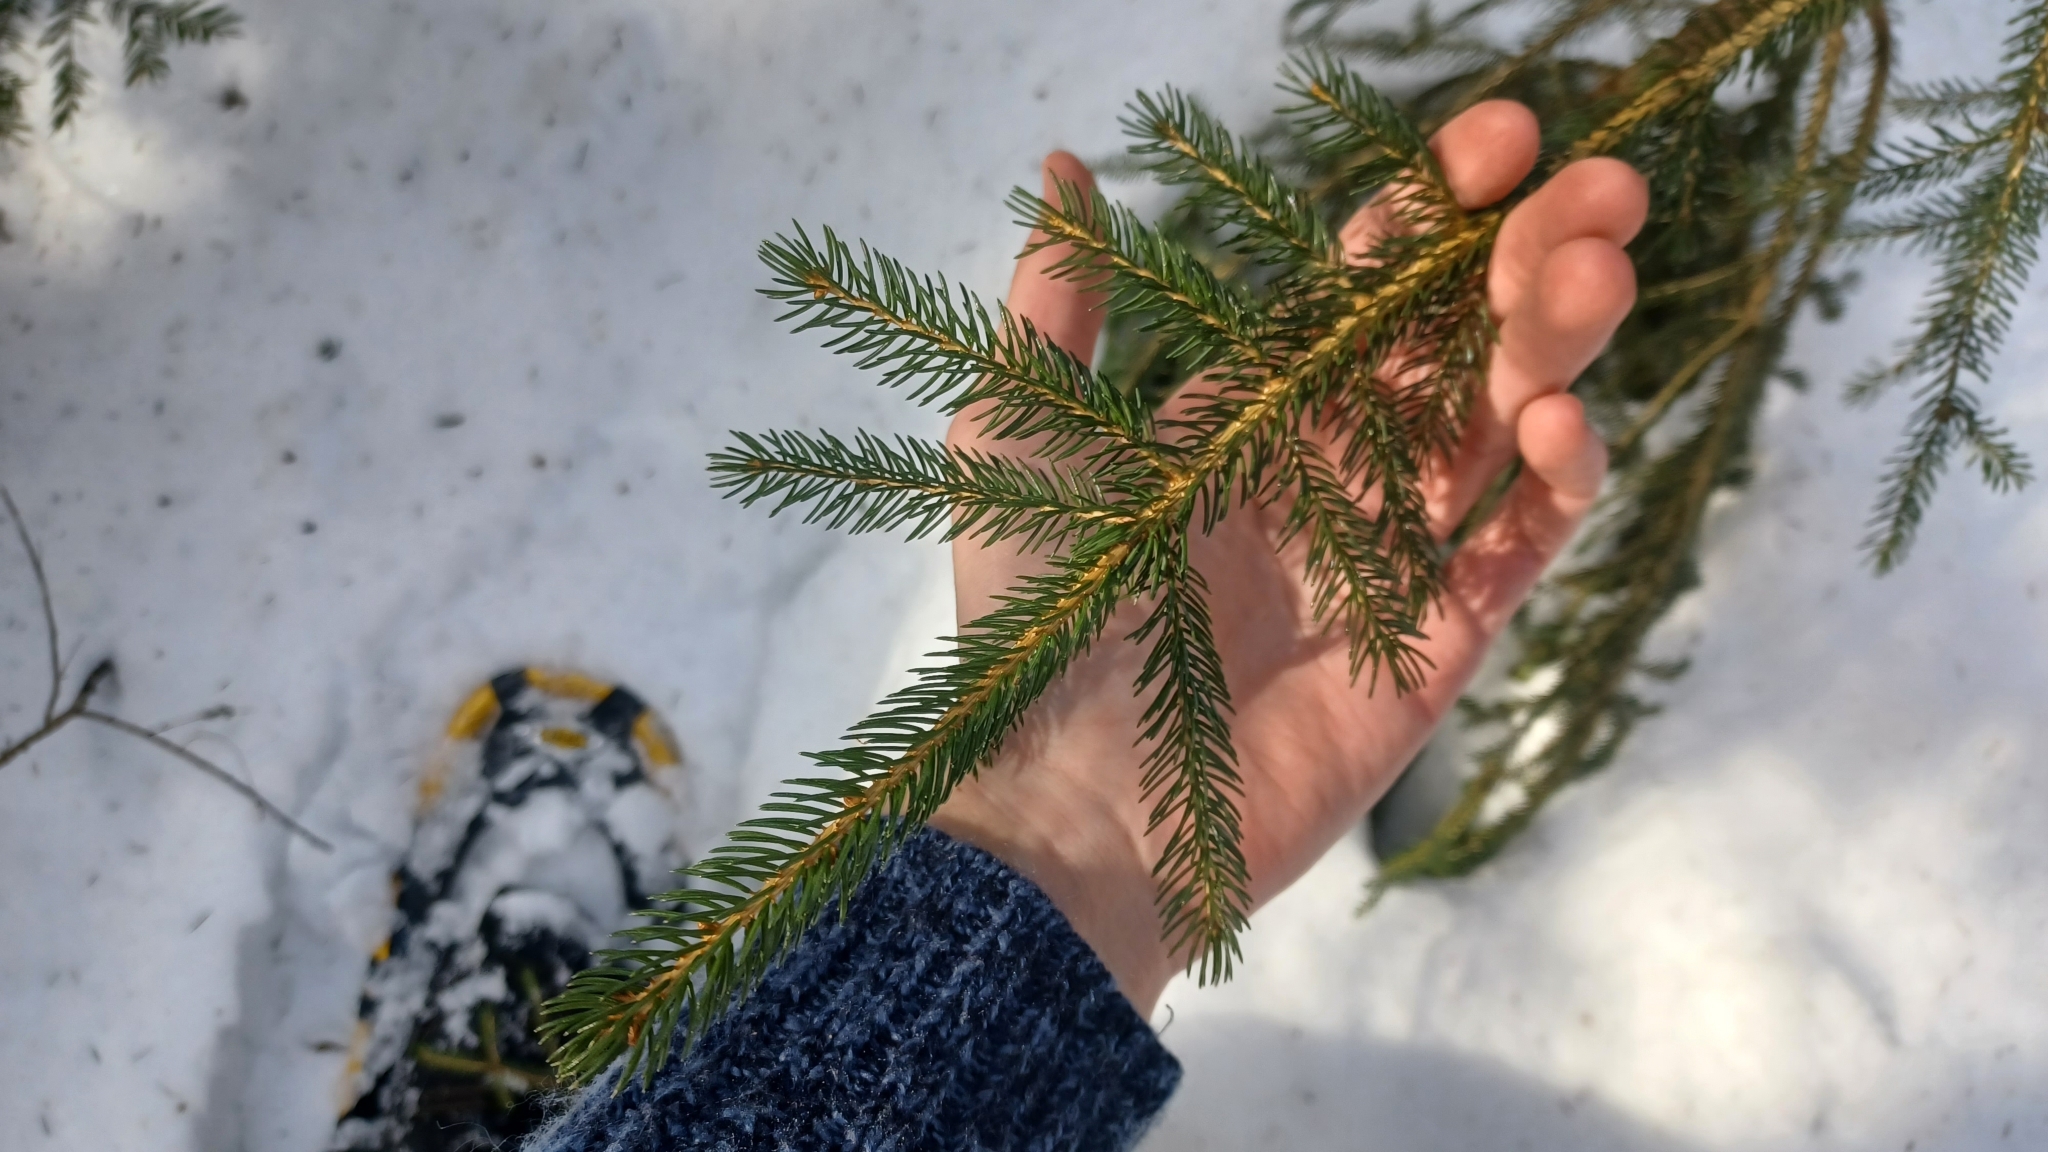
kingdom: Plantae
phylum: Tracheophyta
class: Pinopsida
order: Pinales
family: Pinaceae
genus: Picea
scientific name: Picea rubens
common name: Red spruce
